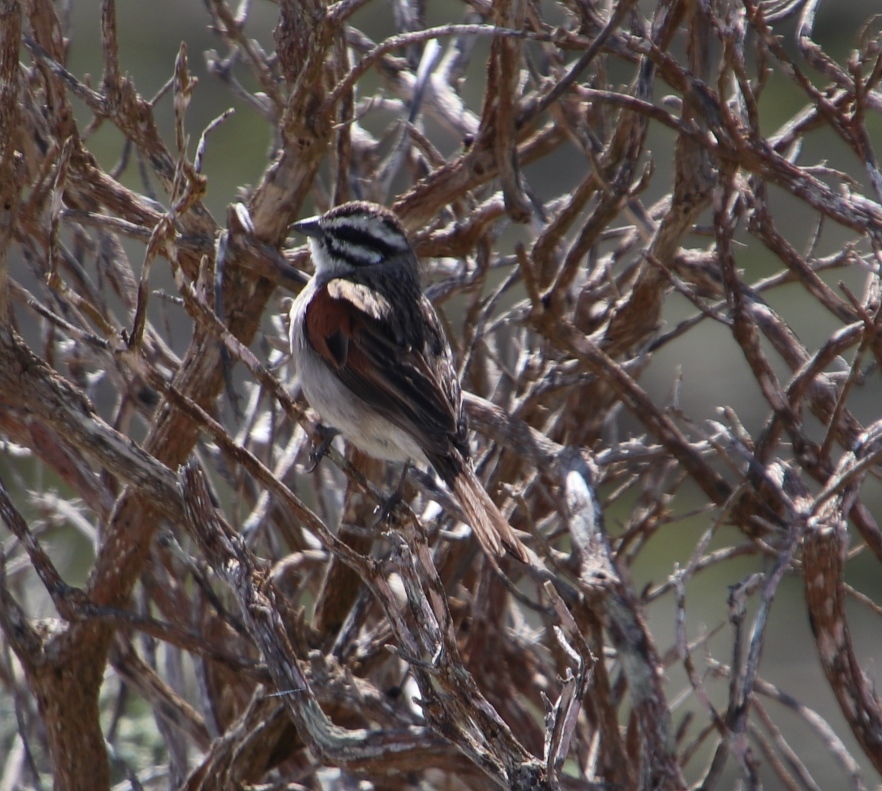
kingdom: Animalia
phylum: Chordata
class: Aves
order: Passeriformes
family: Emberizidae
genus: Emberiza
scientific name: Emberiza capensis
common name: Cape bunting
